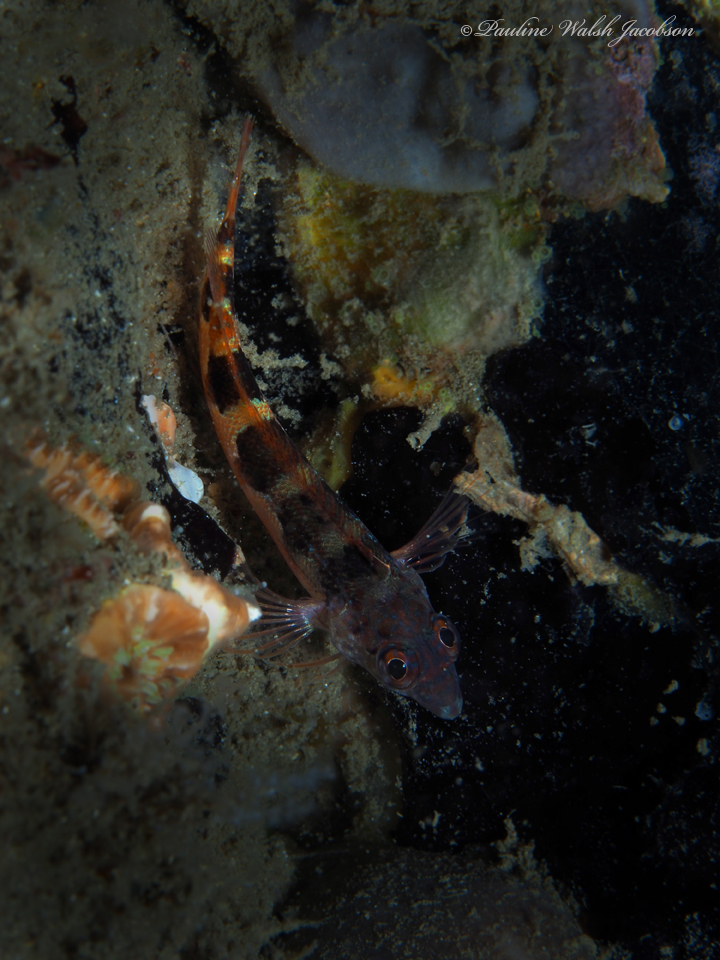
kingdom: Animalia
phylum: Chordata
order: Perciformes
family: Labrisomidae
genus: Malacoctenus
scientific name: Malacoctenus triangulatus
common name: Saddled blenny
